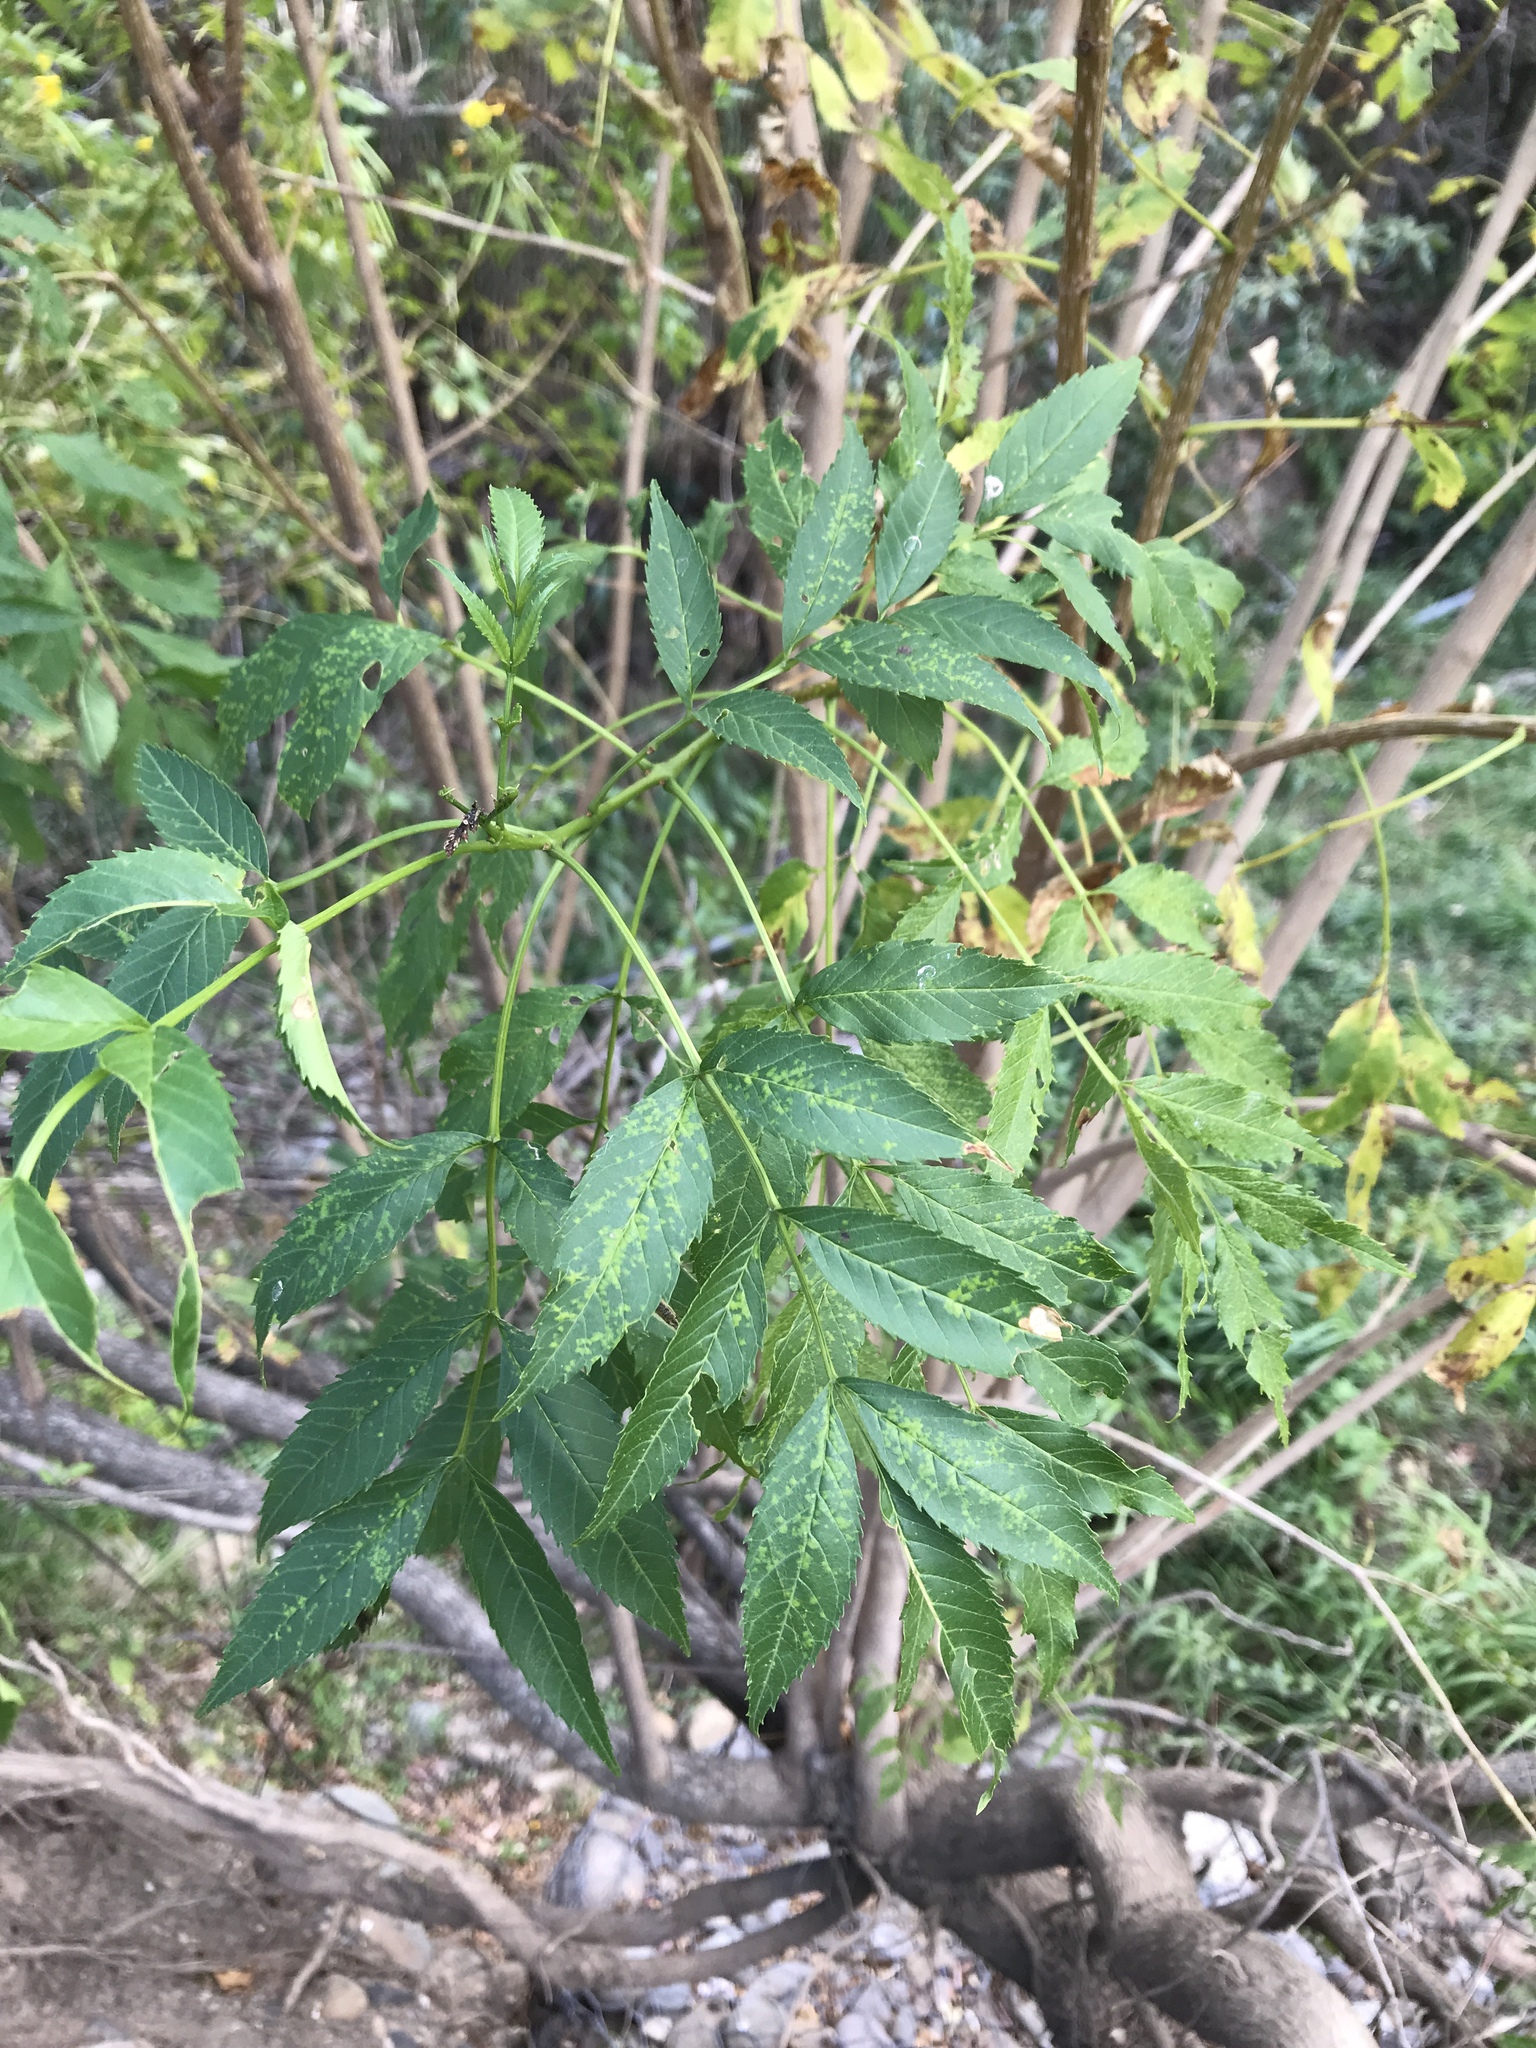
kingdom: Plantae
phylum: Tracheophyta
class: Magnoliopsida
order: Lamiales
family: Bignoniaceae
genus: Tecoma
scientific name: Tecoma stans
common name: Yellow trumpetbush
